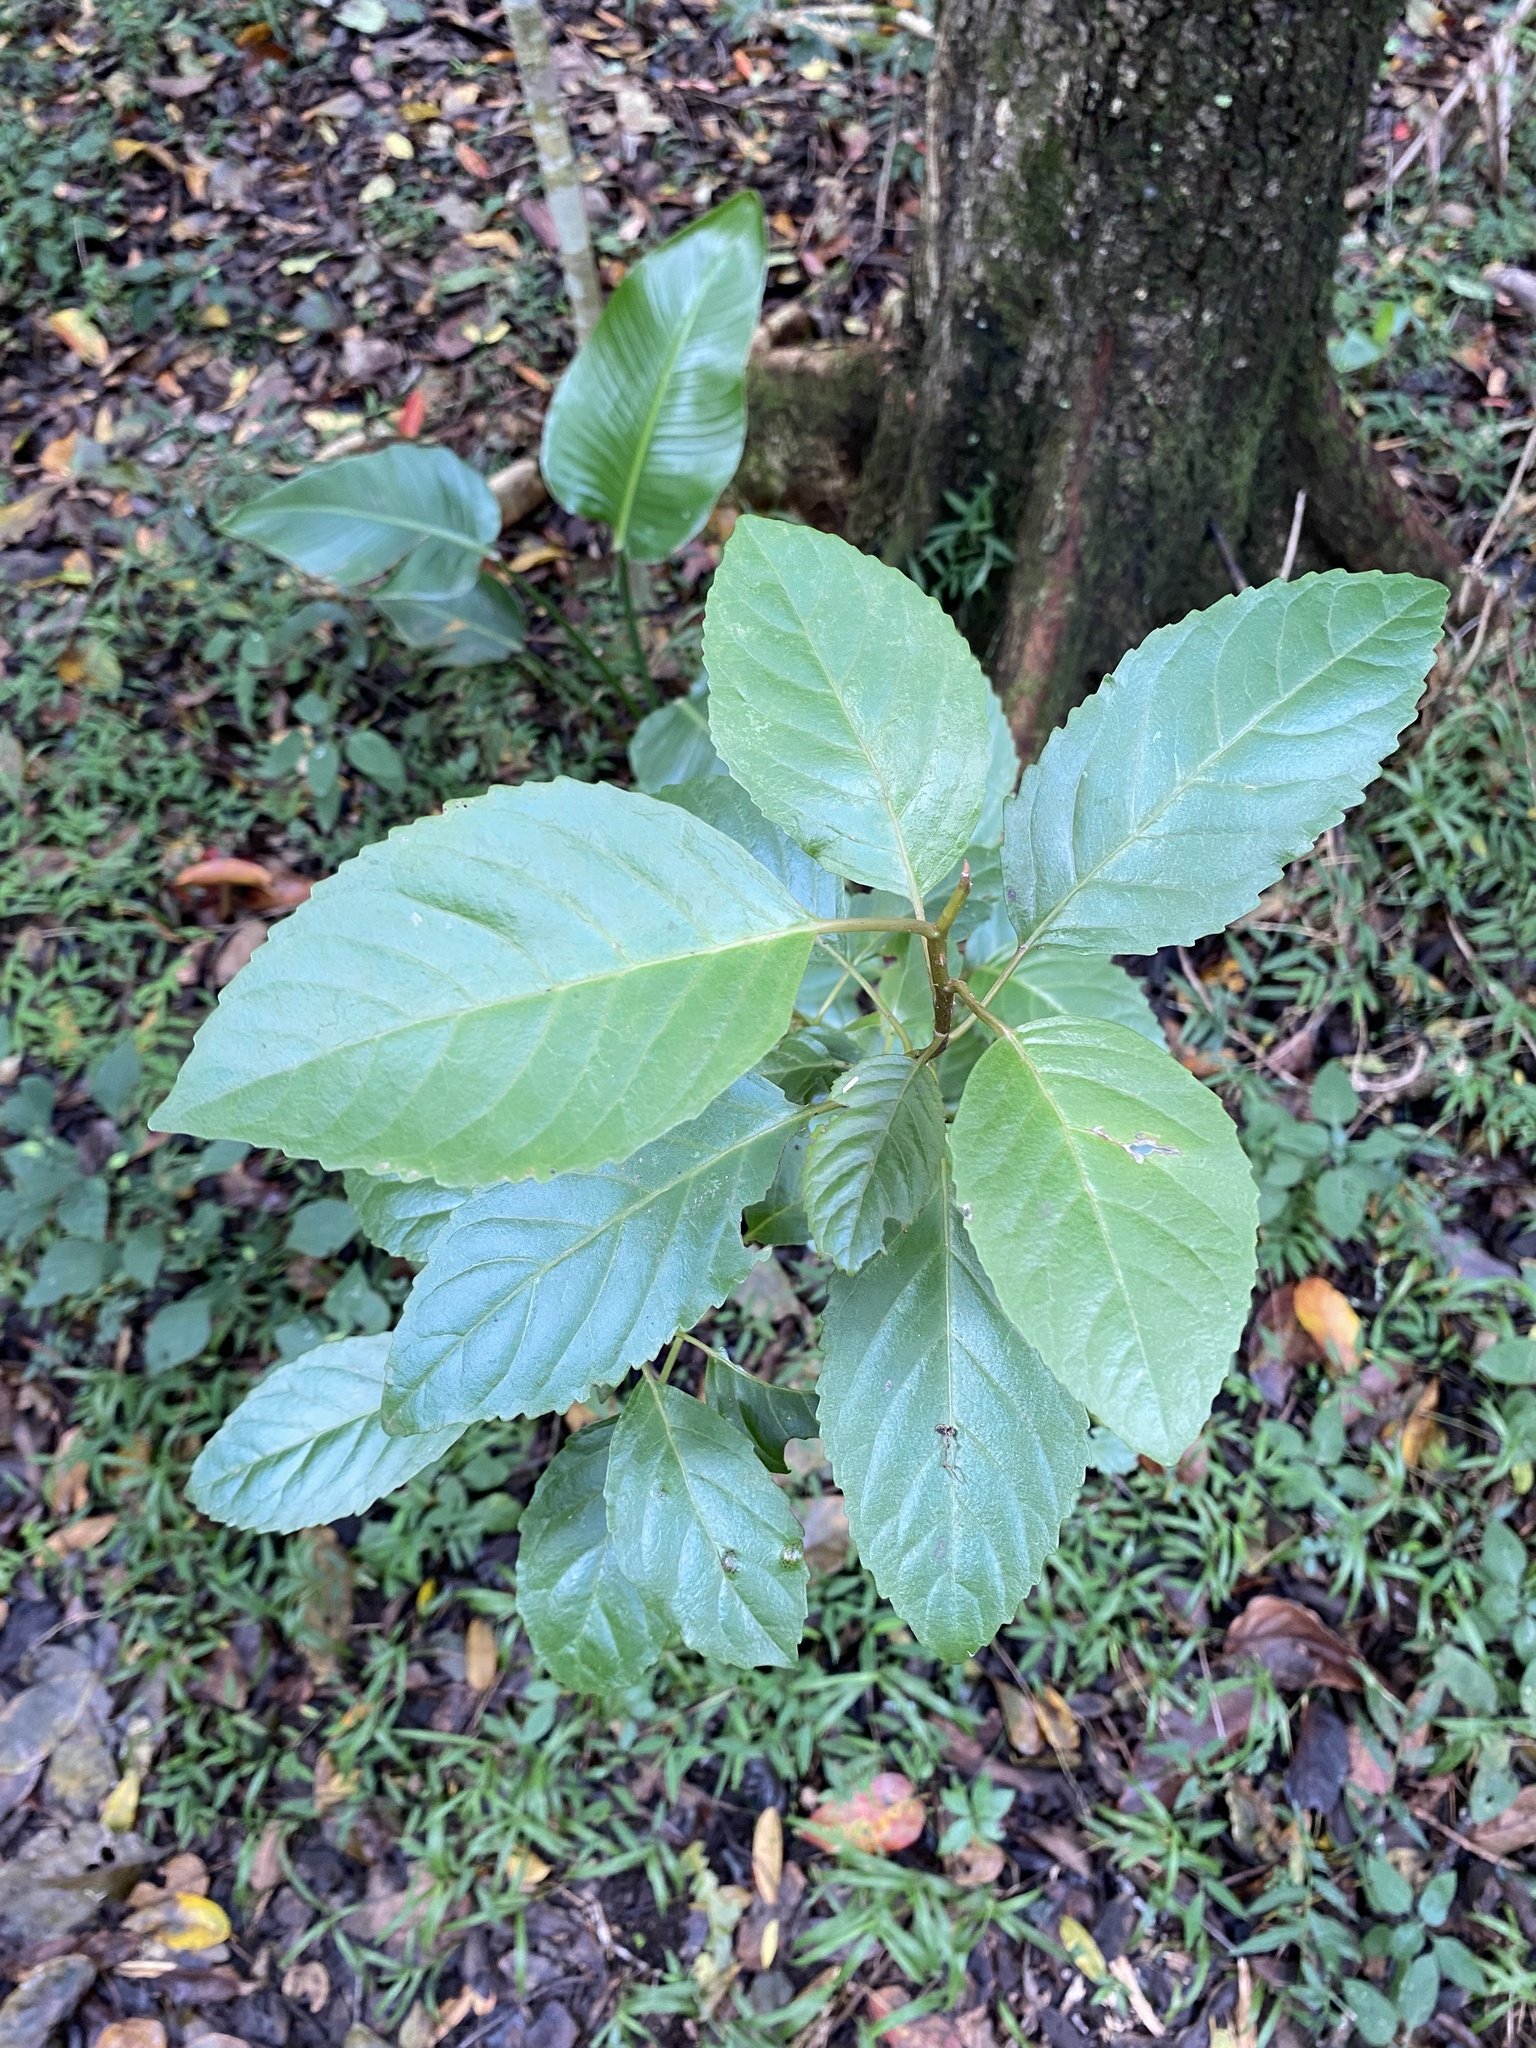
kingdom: Plantae
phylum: Tracheophyta
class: Magnoliopsida
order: Ericales
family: Primulaceae
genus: Maesa
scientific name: Maesa lanceolata
